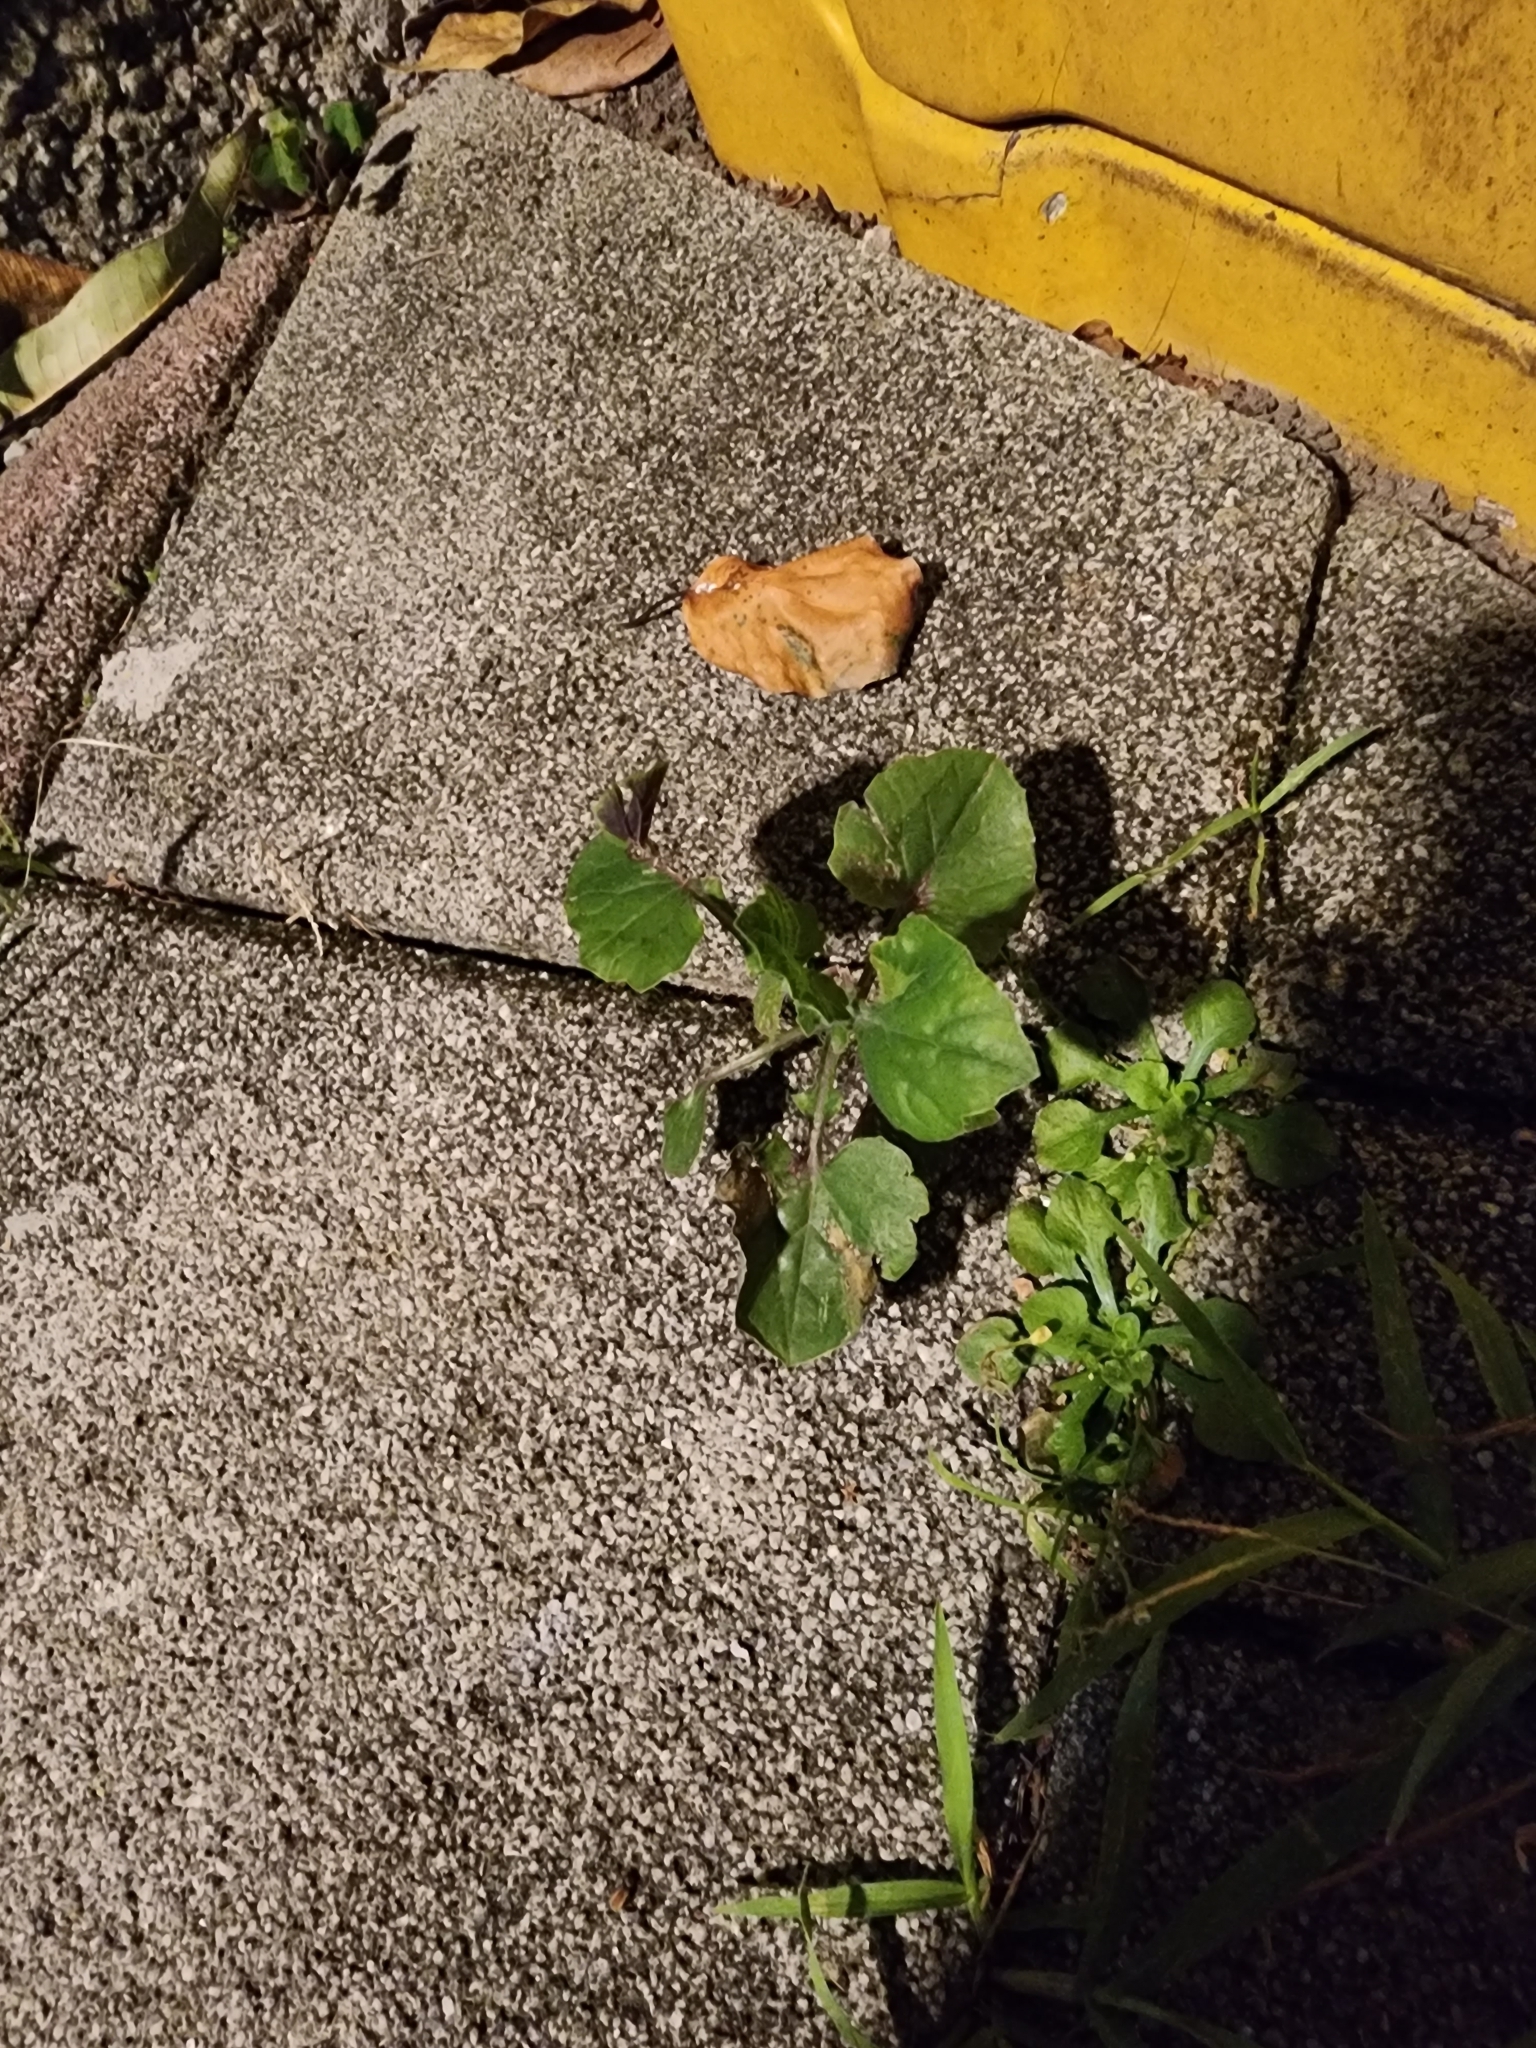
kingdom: Plantae
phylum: Tracheophyta
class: Magnoliopsida
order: Asterales
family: Asteraceae
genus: Emilia
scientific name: Emilia javanica
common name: Tassel-flower
